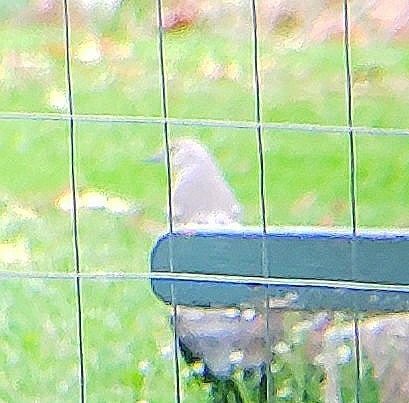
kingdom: Animalia
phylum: Chordata
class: Aves
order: Passeriformes
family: Mimidae
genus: Mimus
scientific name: Mimus polyglottos
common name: Northern mockingbird
